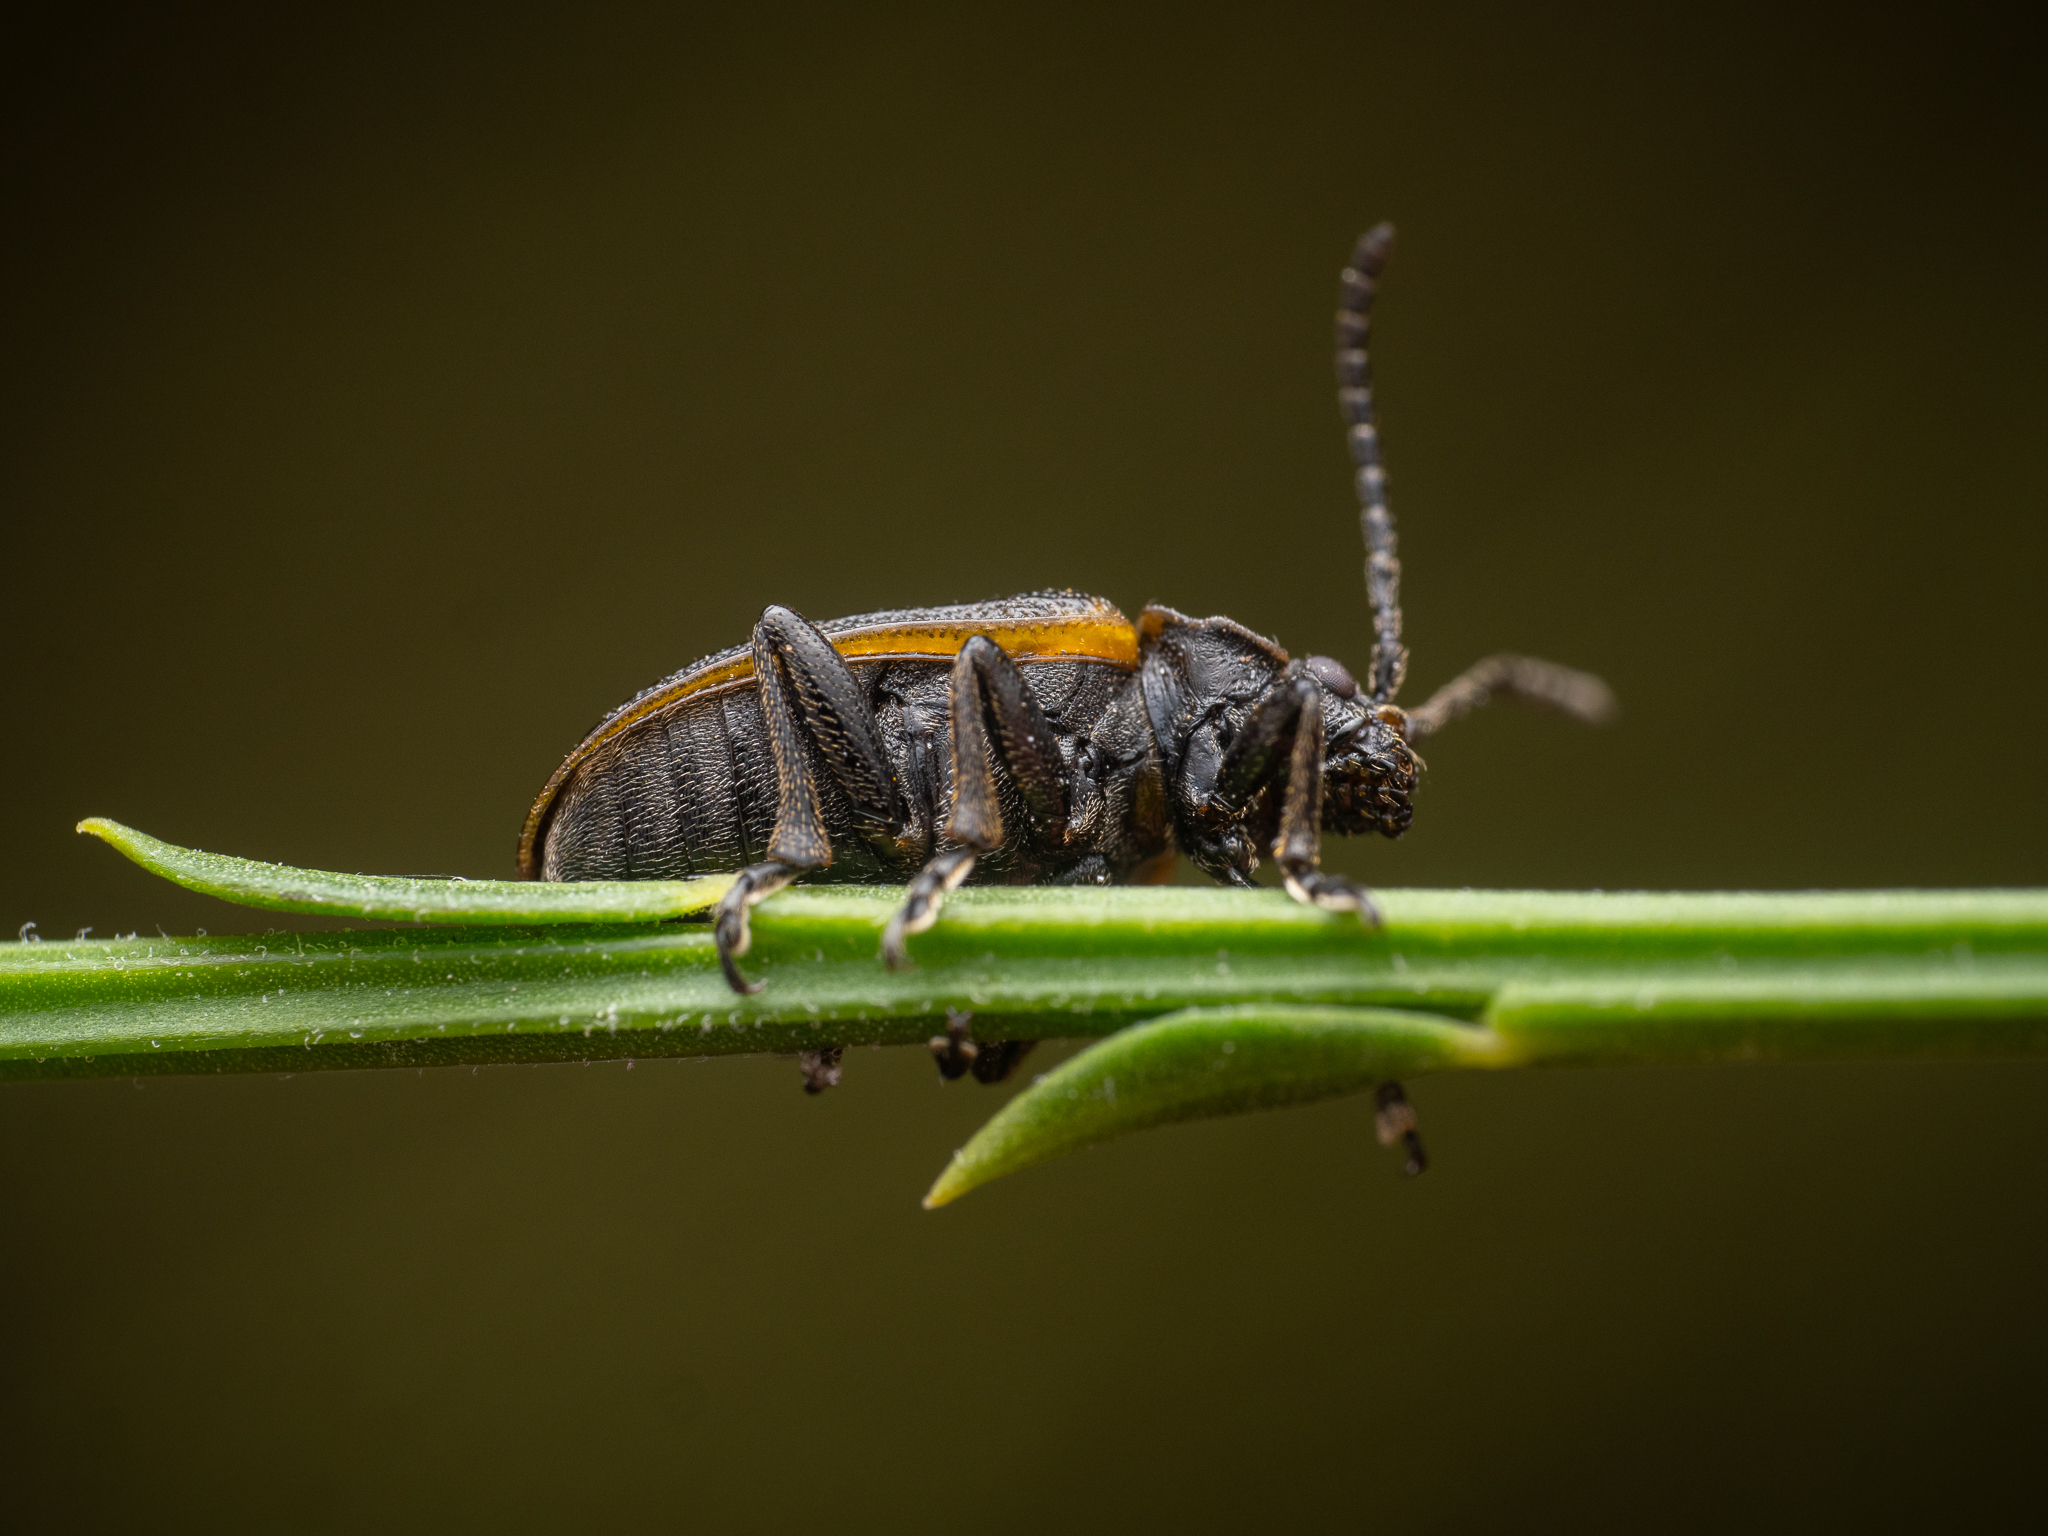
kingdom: Animalia
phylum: Arthropoda
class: Insecta
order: Coleoptera
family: Chrysomelidae
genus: Galeruca
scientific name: Galeruca interrupta
